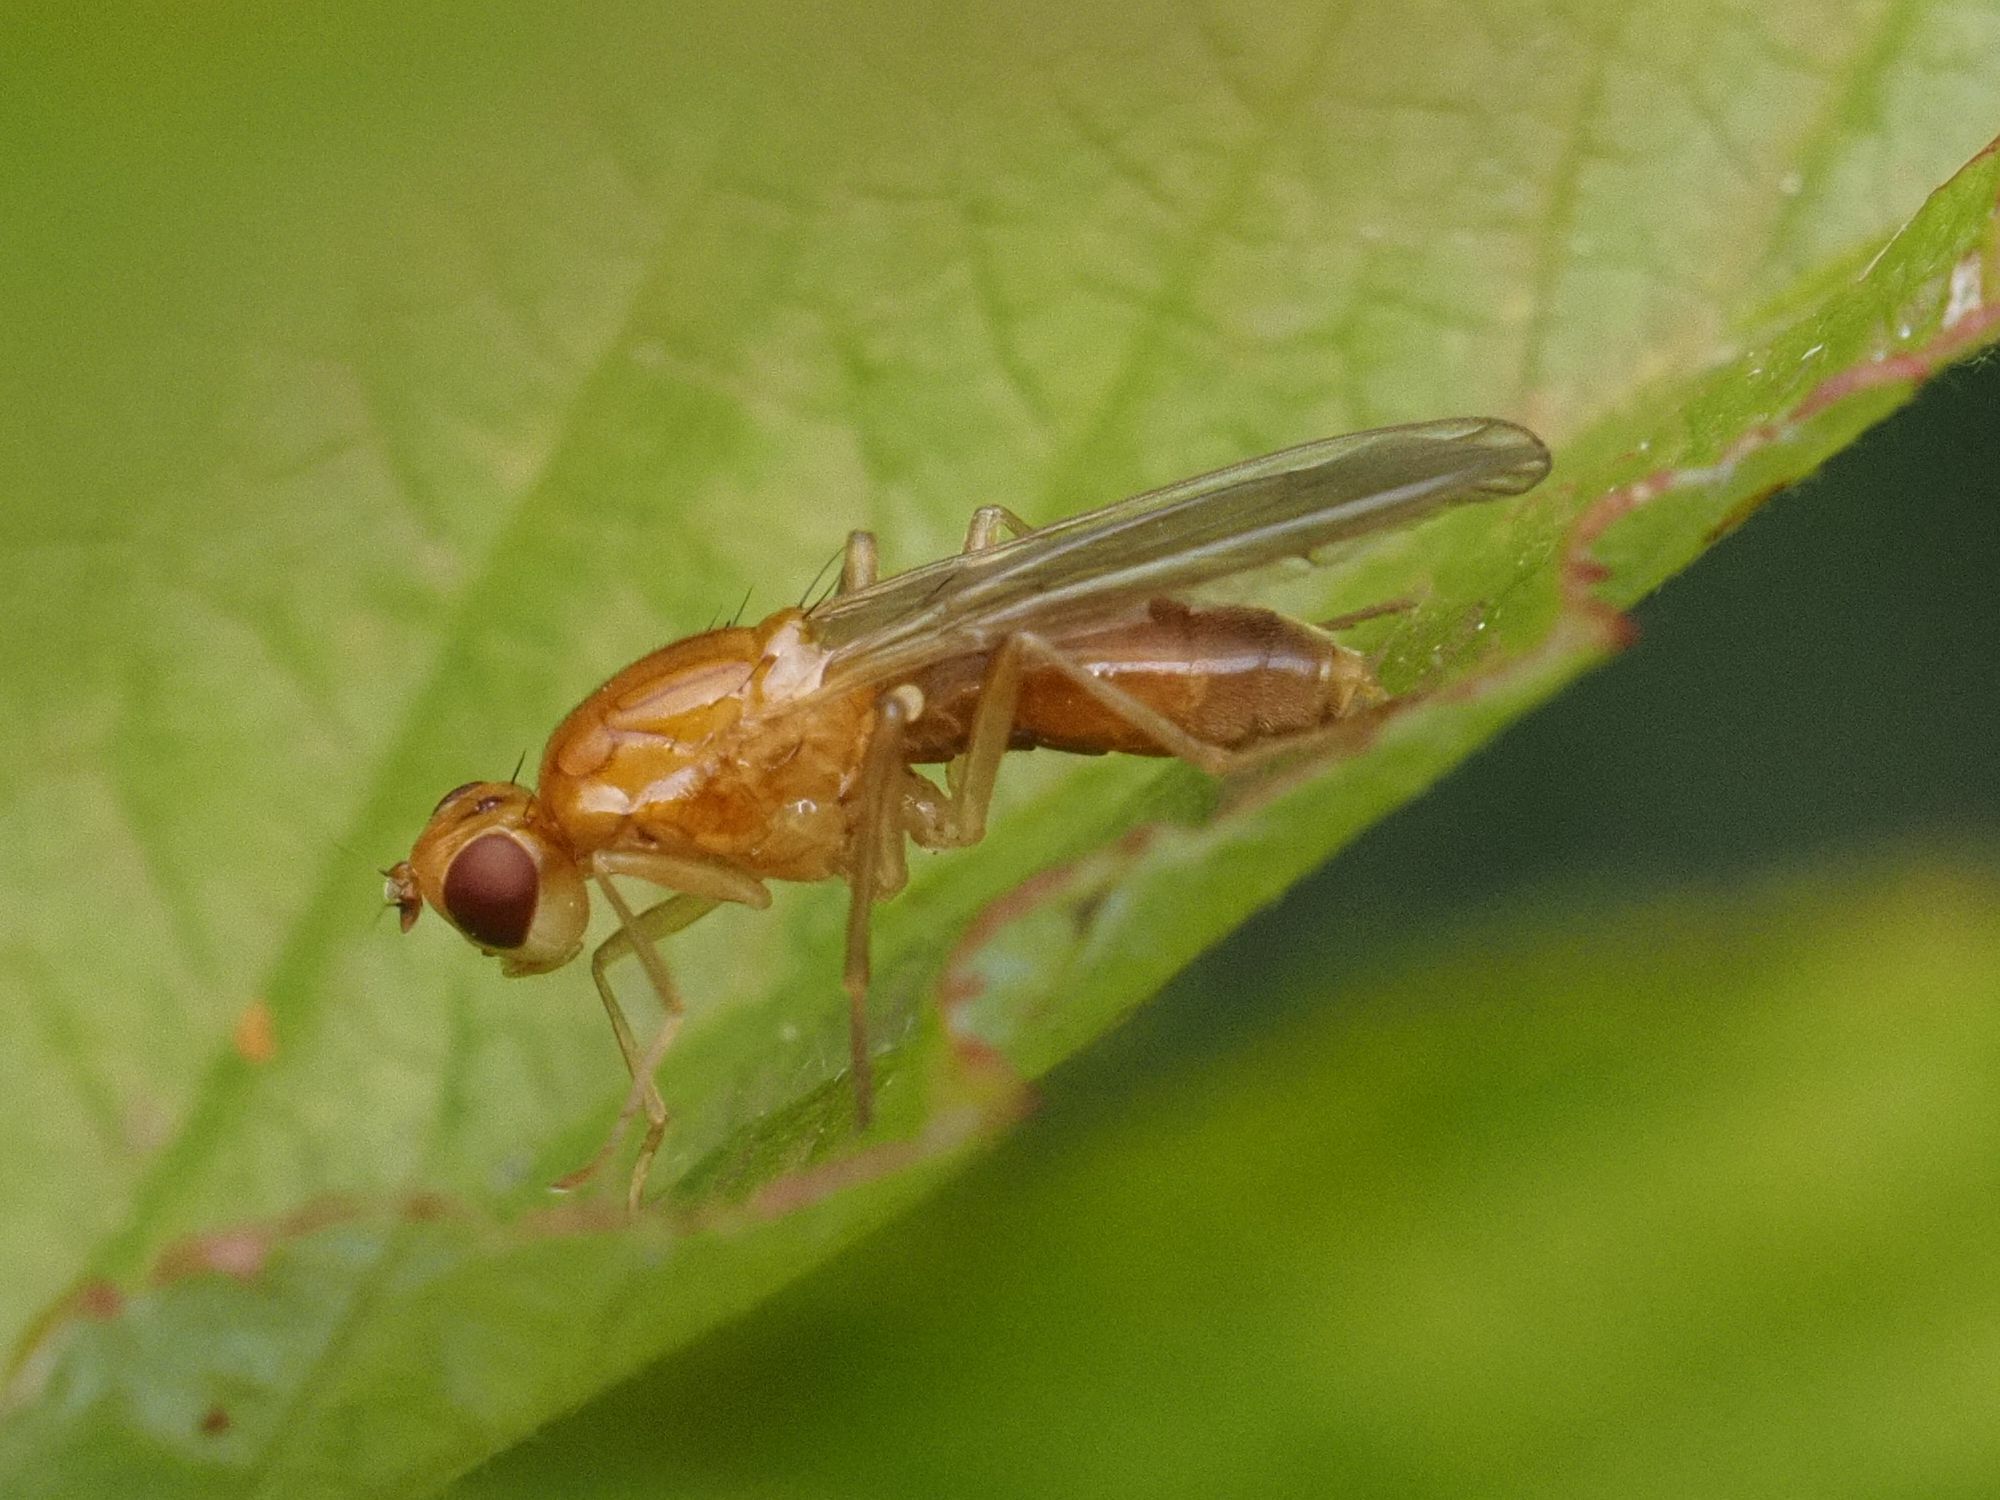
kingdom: Animalia
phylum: Arthropoda
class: Insecta
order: Diptera
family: Psilidae
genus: Psila
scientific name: Psila fimetaria
